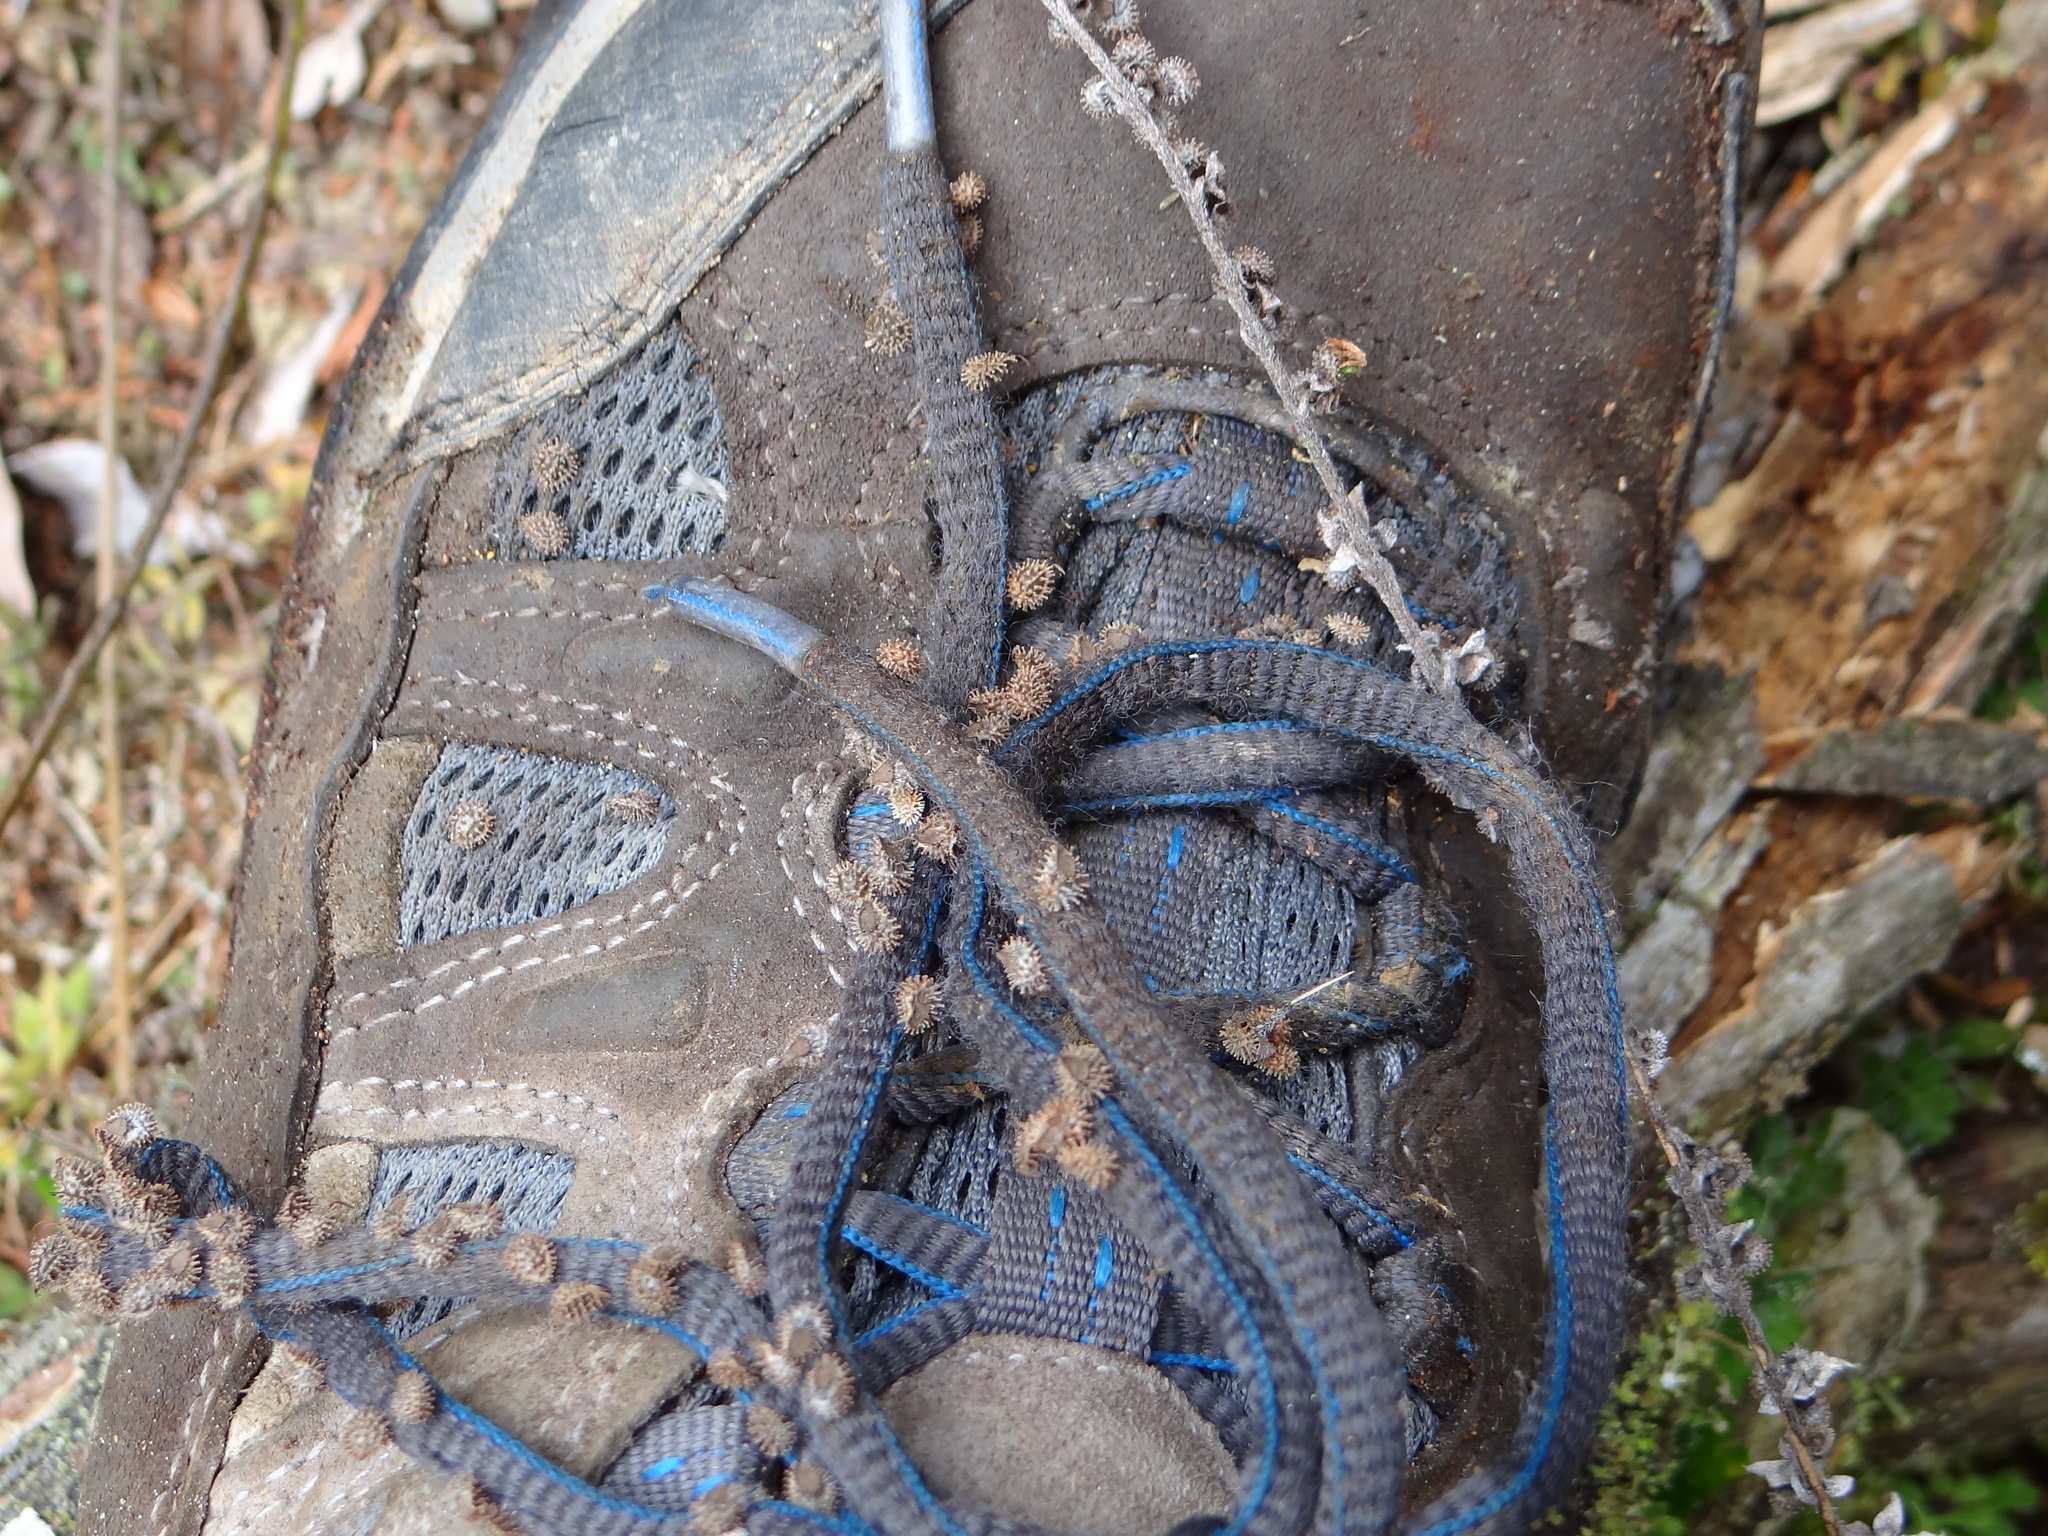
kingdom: Plantae
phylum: Tracheophyta
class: Magnoliopsida
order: Boraginales
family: Boraginaceae
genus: Cynoglossum
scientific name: Cynoglossum zeylanicum
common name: Ceylon hound's tongue
